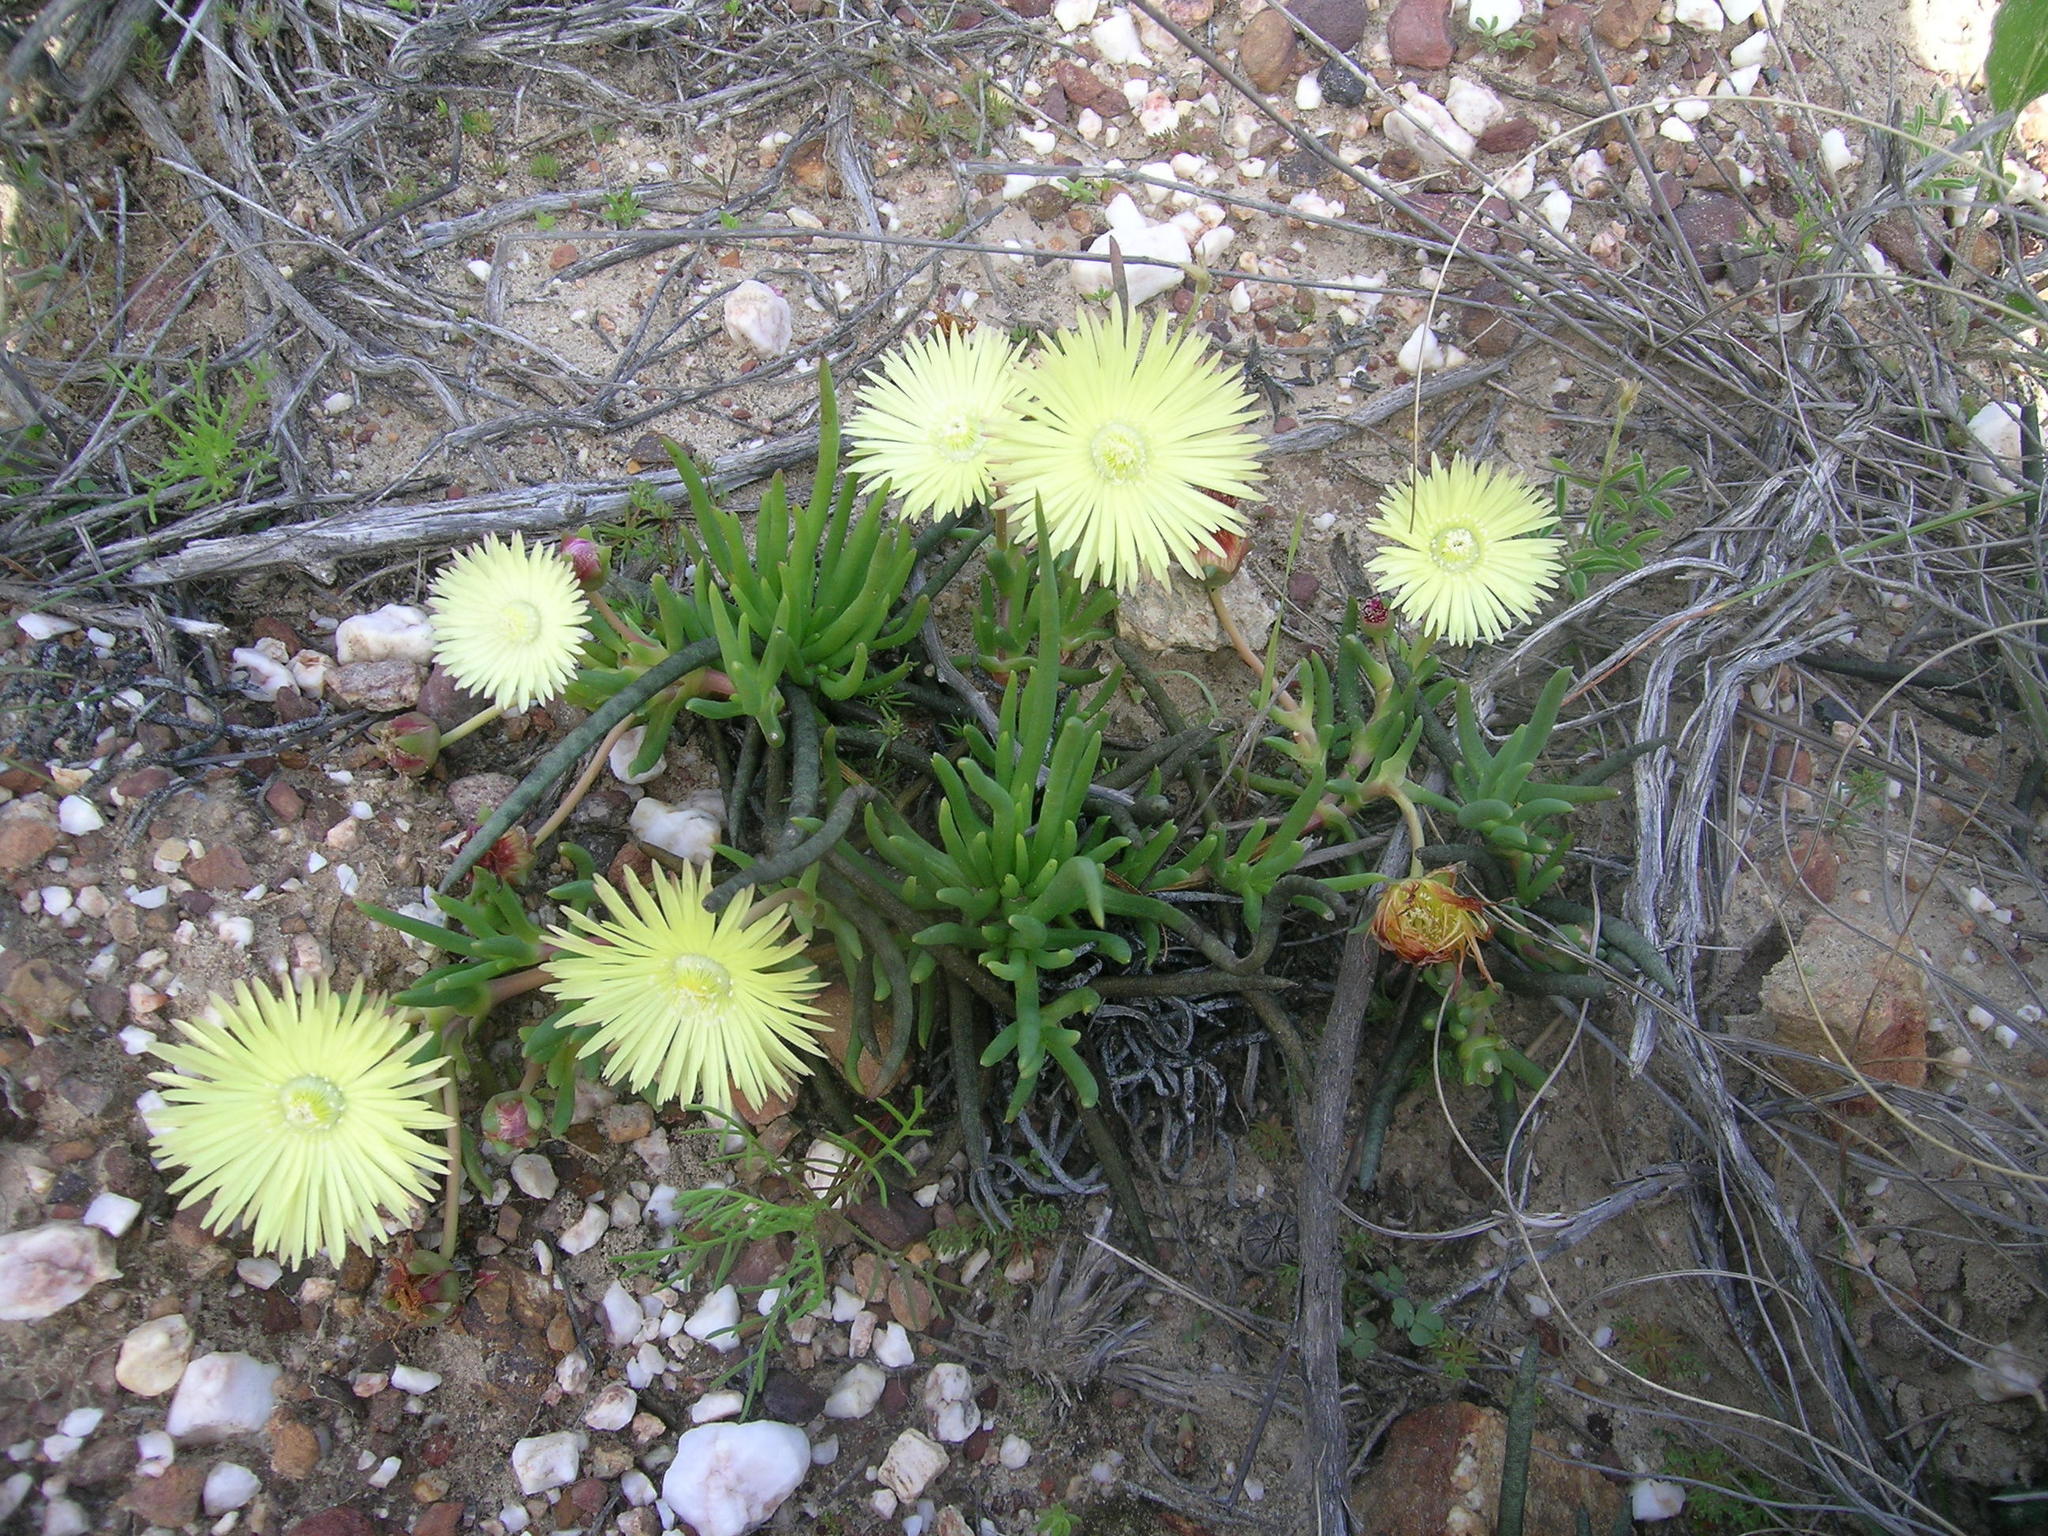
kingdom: Plantae
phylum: Tracheophyta
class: Magnoliopsida
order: Caryophyllales
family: Aizoaceae
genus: Cephalophyllum
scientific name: Cephalophyllum purpureoalbum
